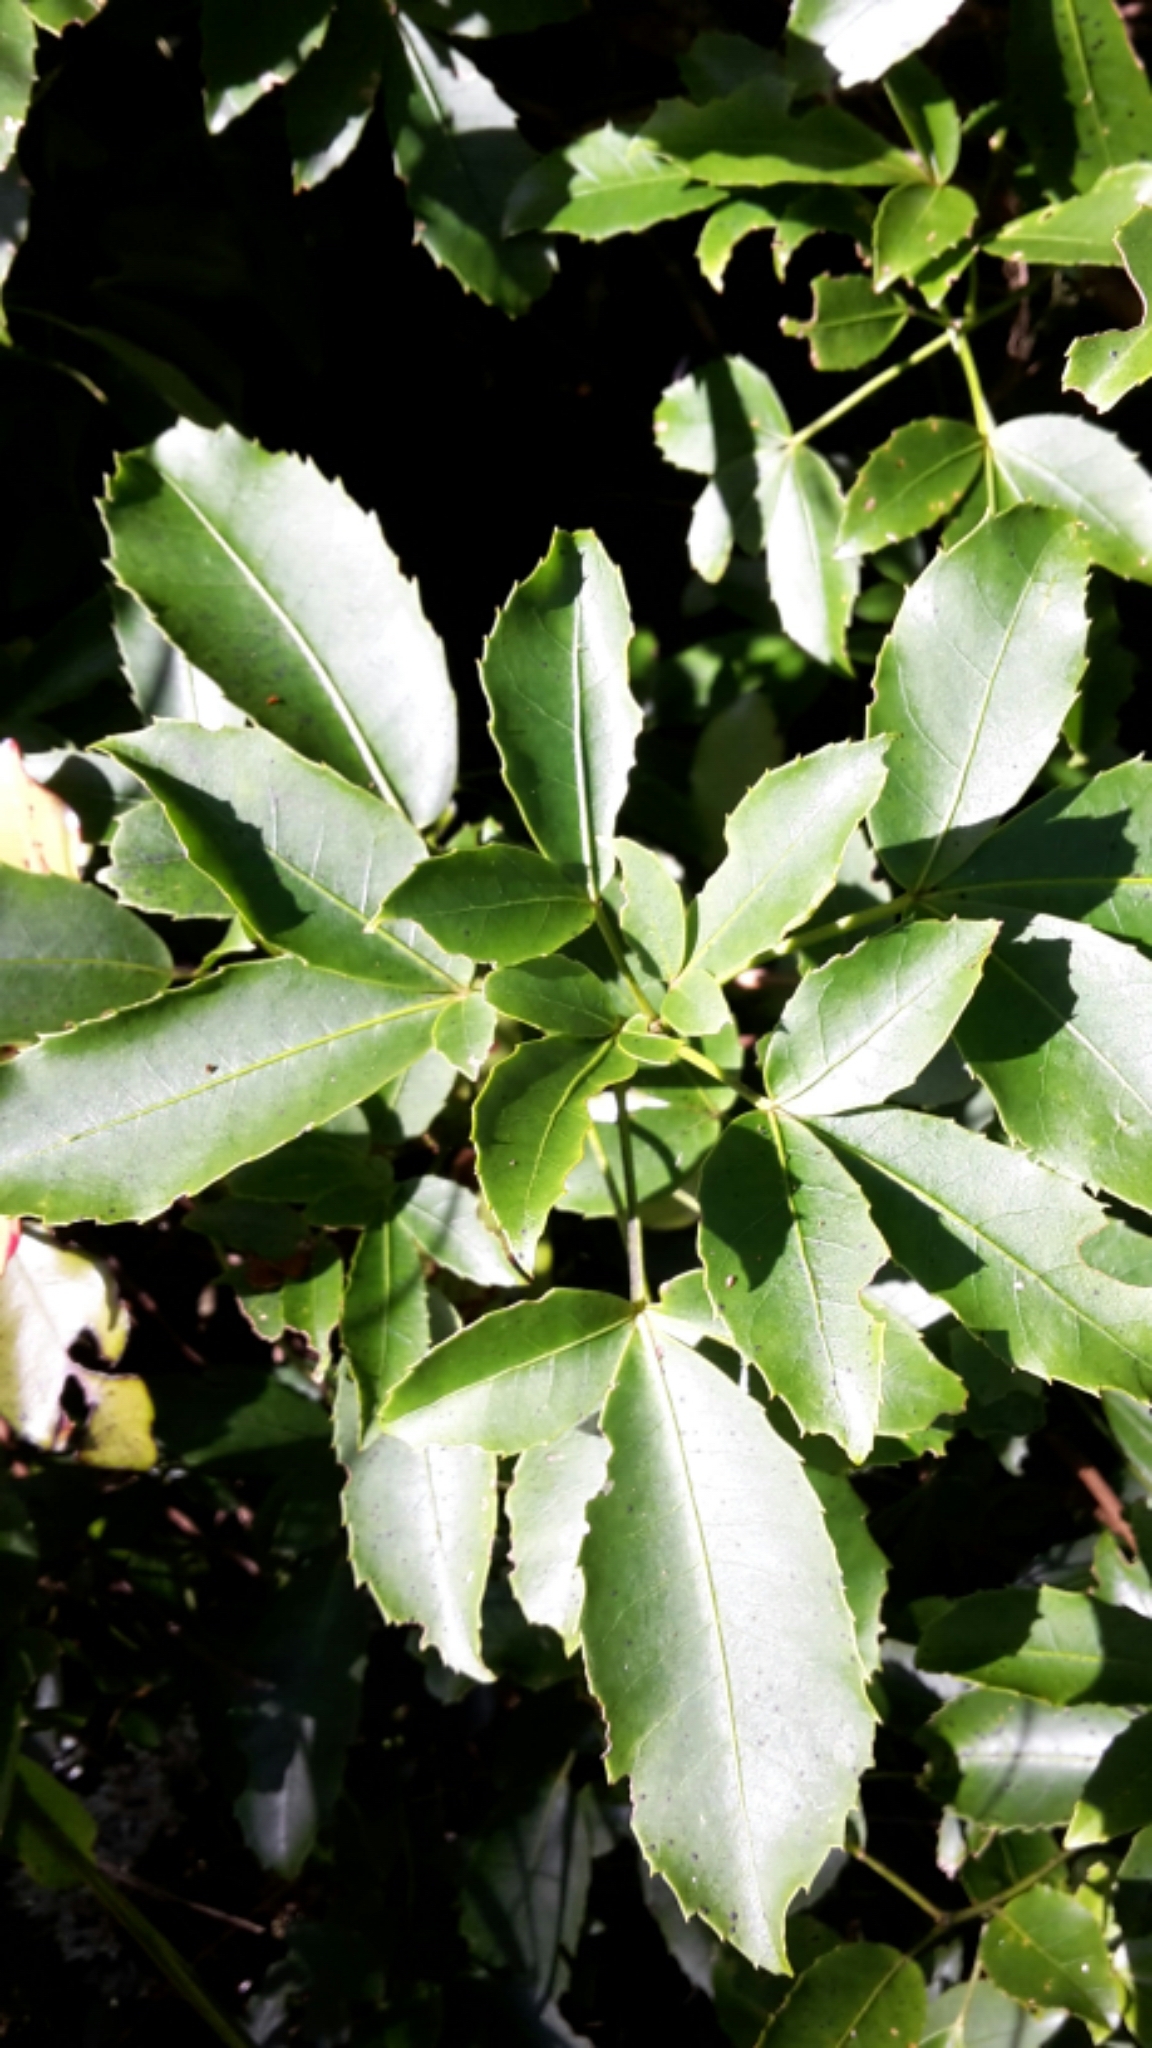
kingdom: Plantae
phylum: Tracheophyta
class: Magnoliopsida
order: Apiales
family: Araliaceae
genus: Raukaua
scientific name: Raukaua simplex
